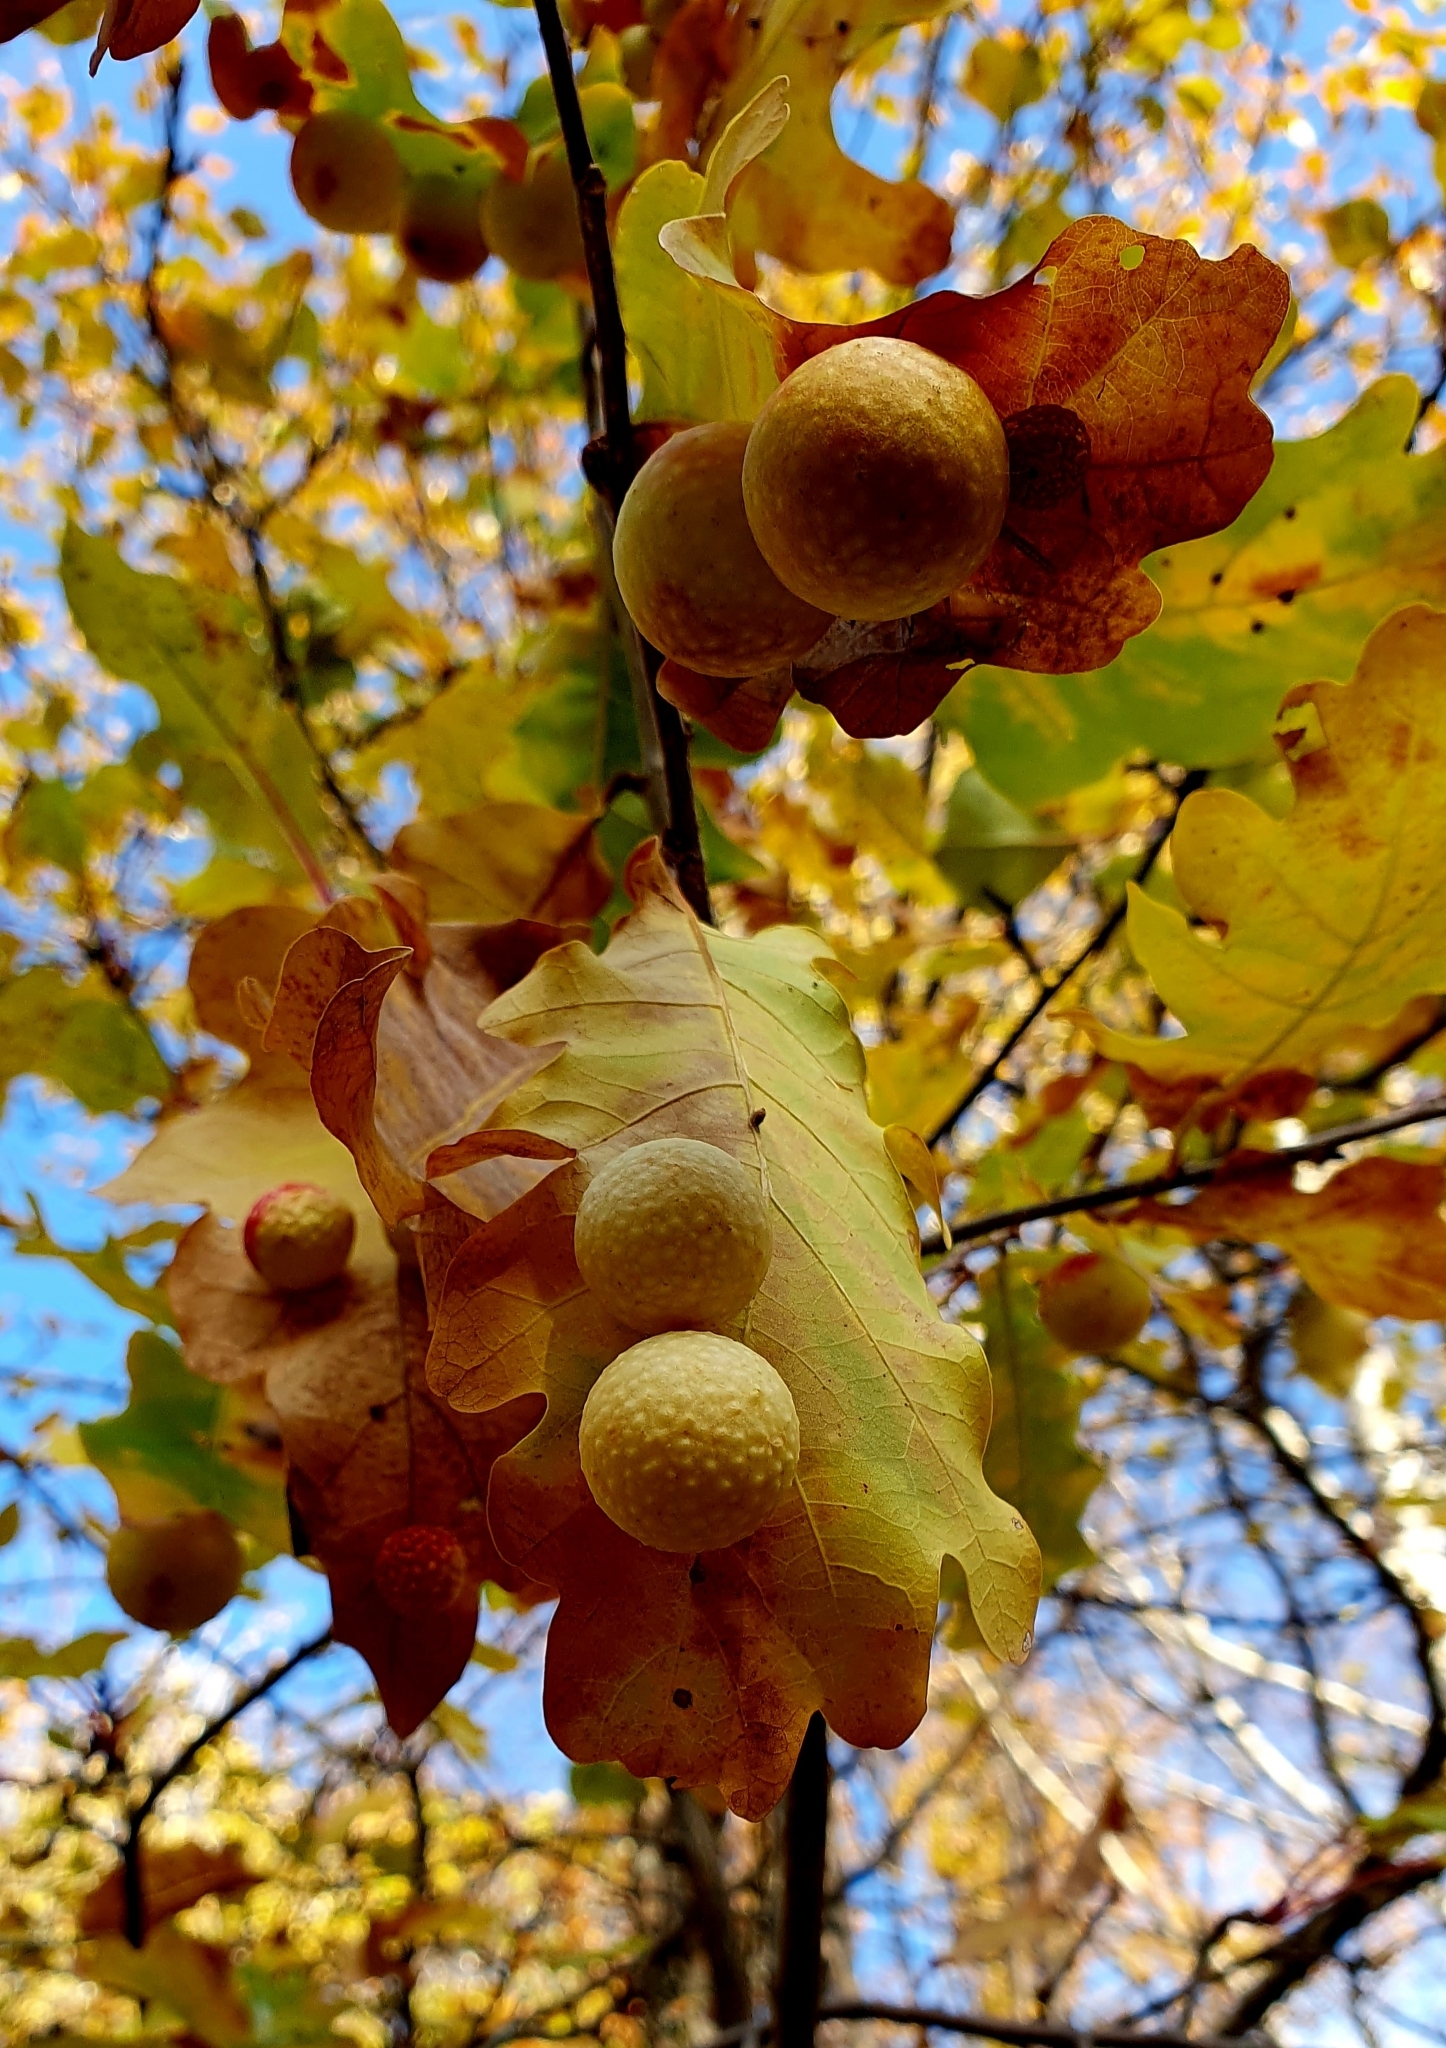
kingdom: Animalia
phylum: Arthropoda
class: Insecta
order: Hymenoptera
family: Cynipidae
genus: Cynips
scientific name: Cynips quercusfolii
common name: Cherry gall
